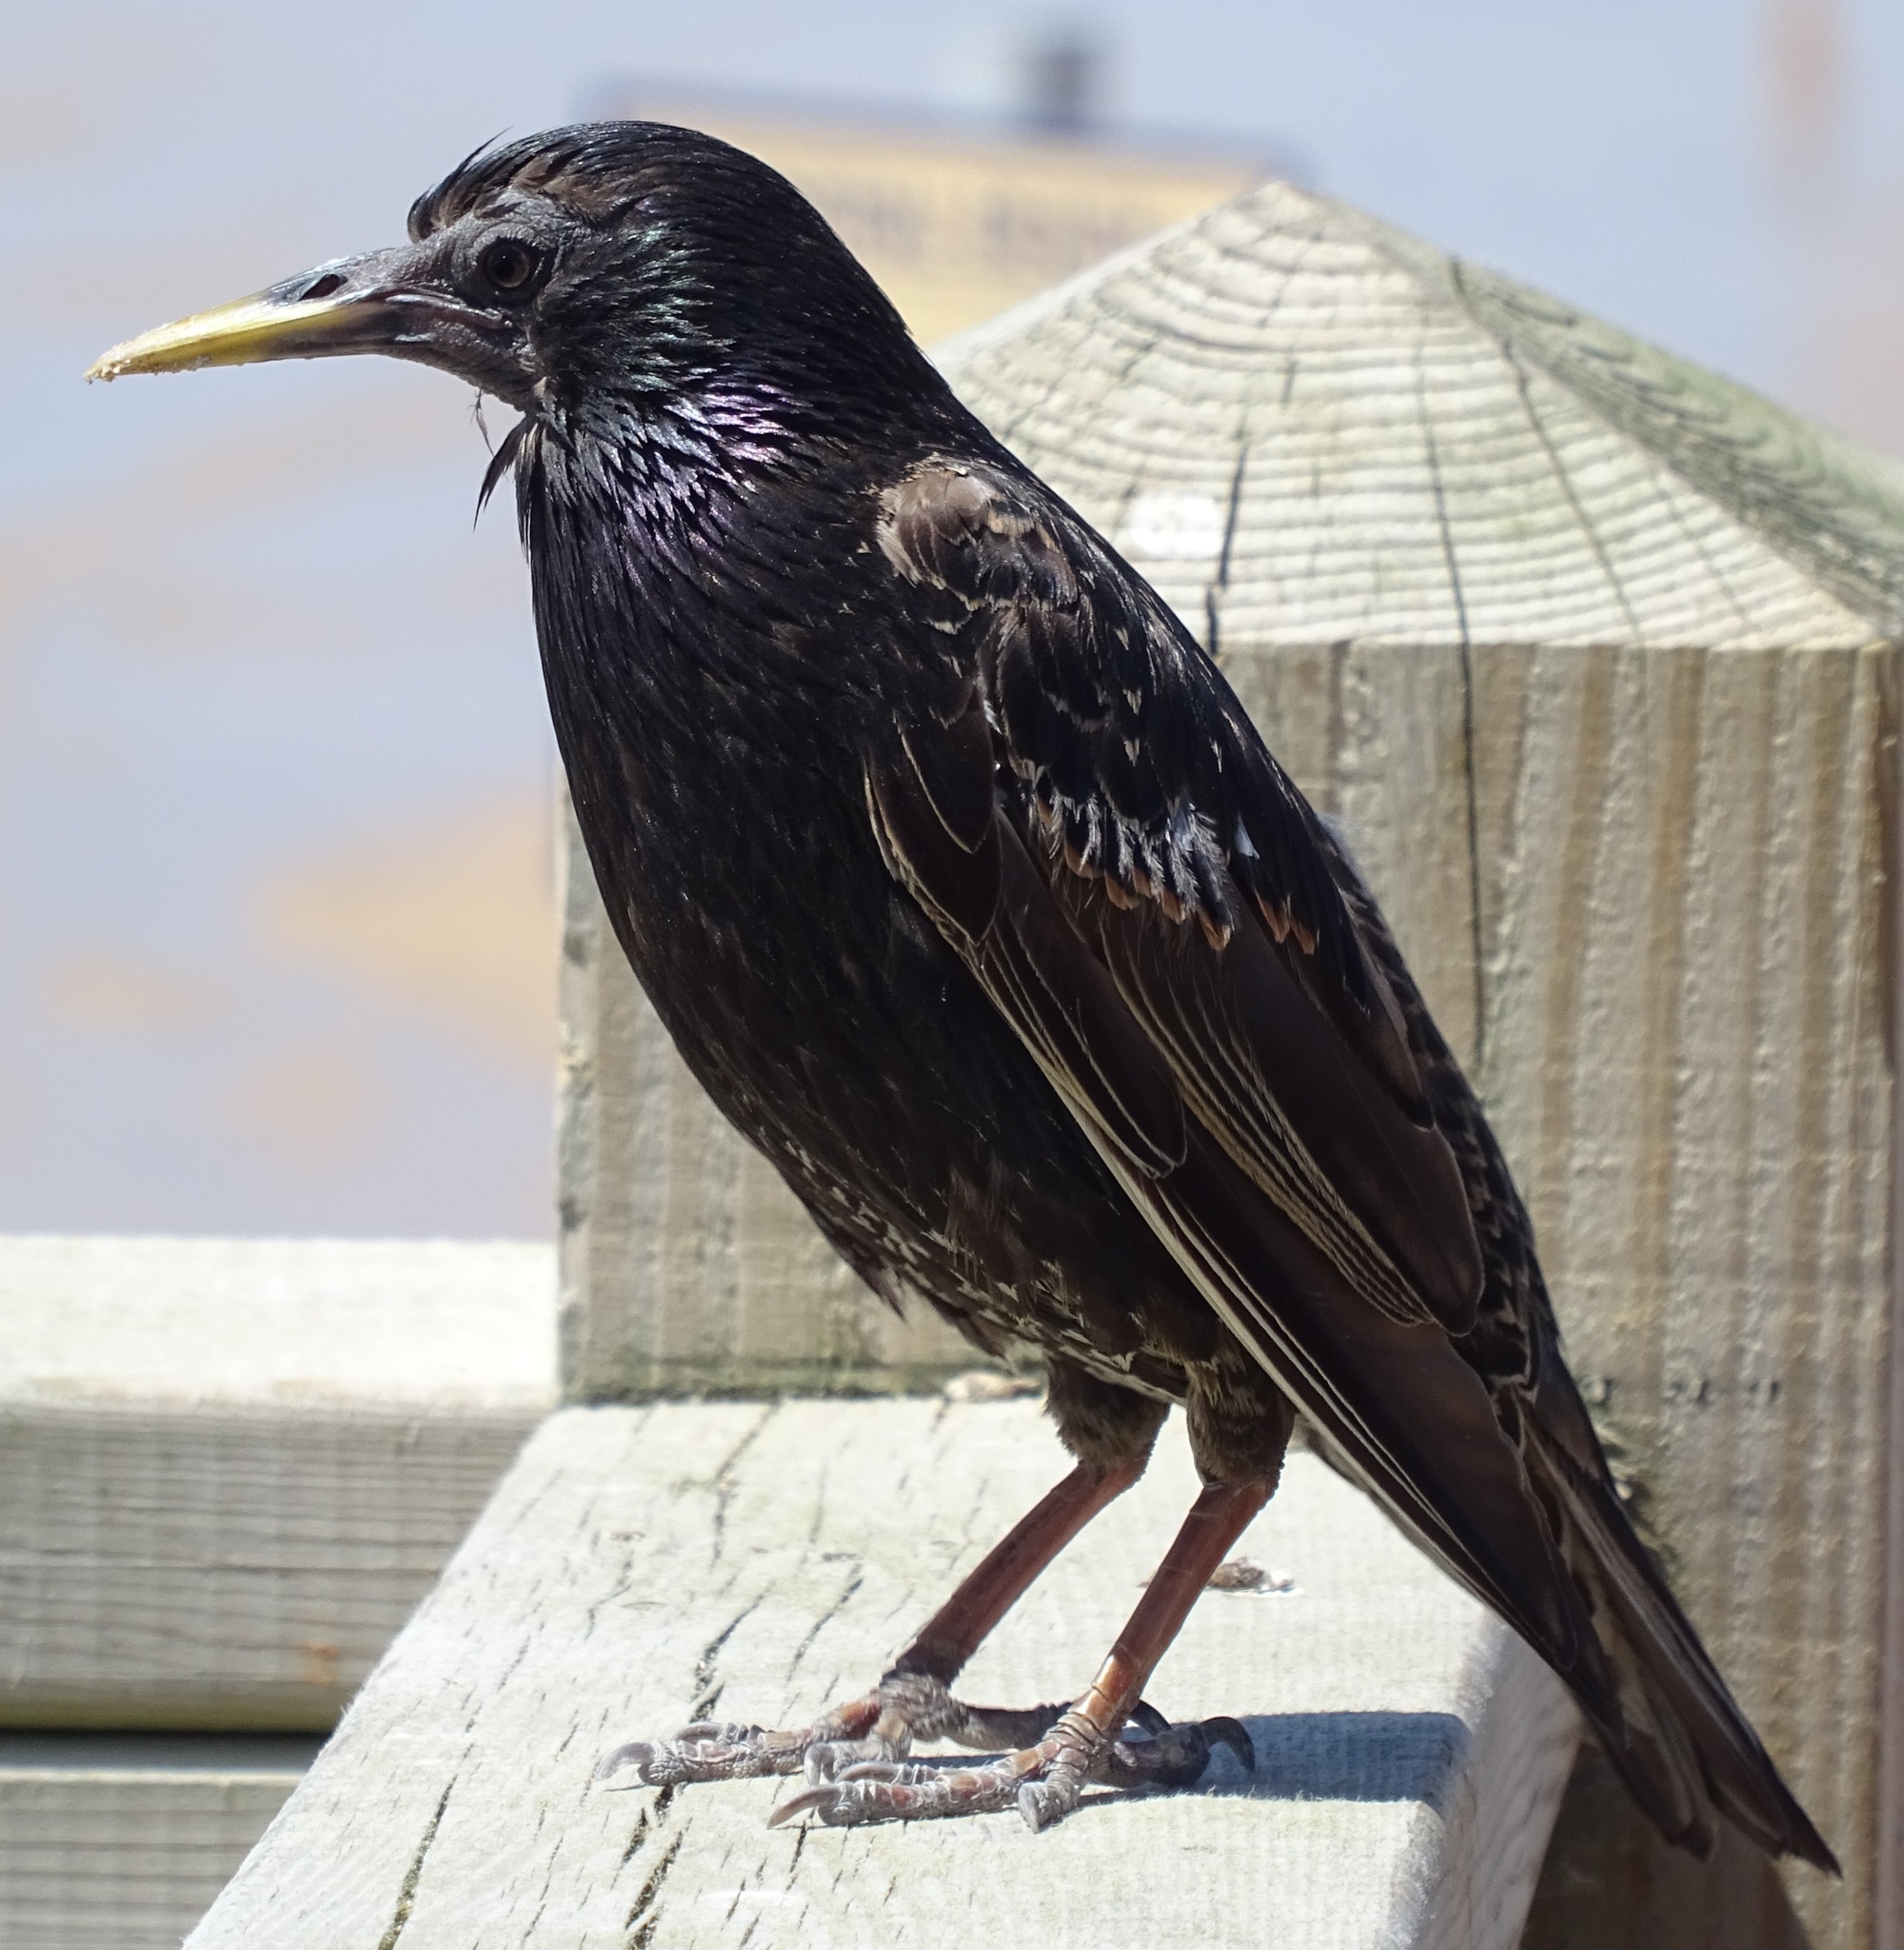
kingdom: Animalia
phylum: Chordata
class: Aves
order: Passeriformes
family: Sturnidae
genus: Sturnus
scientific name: Sturnus vulgaris
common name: Common starling
